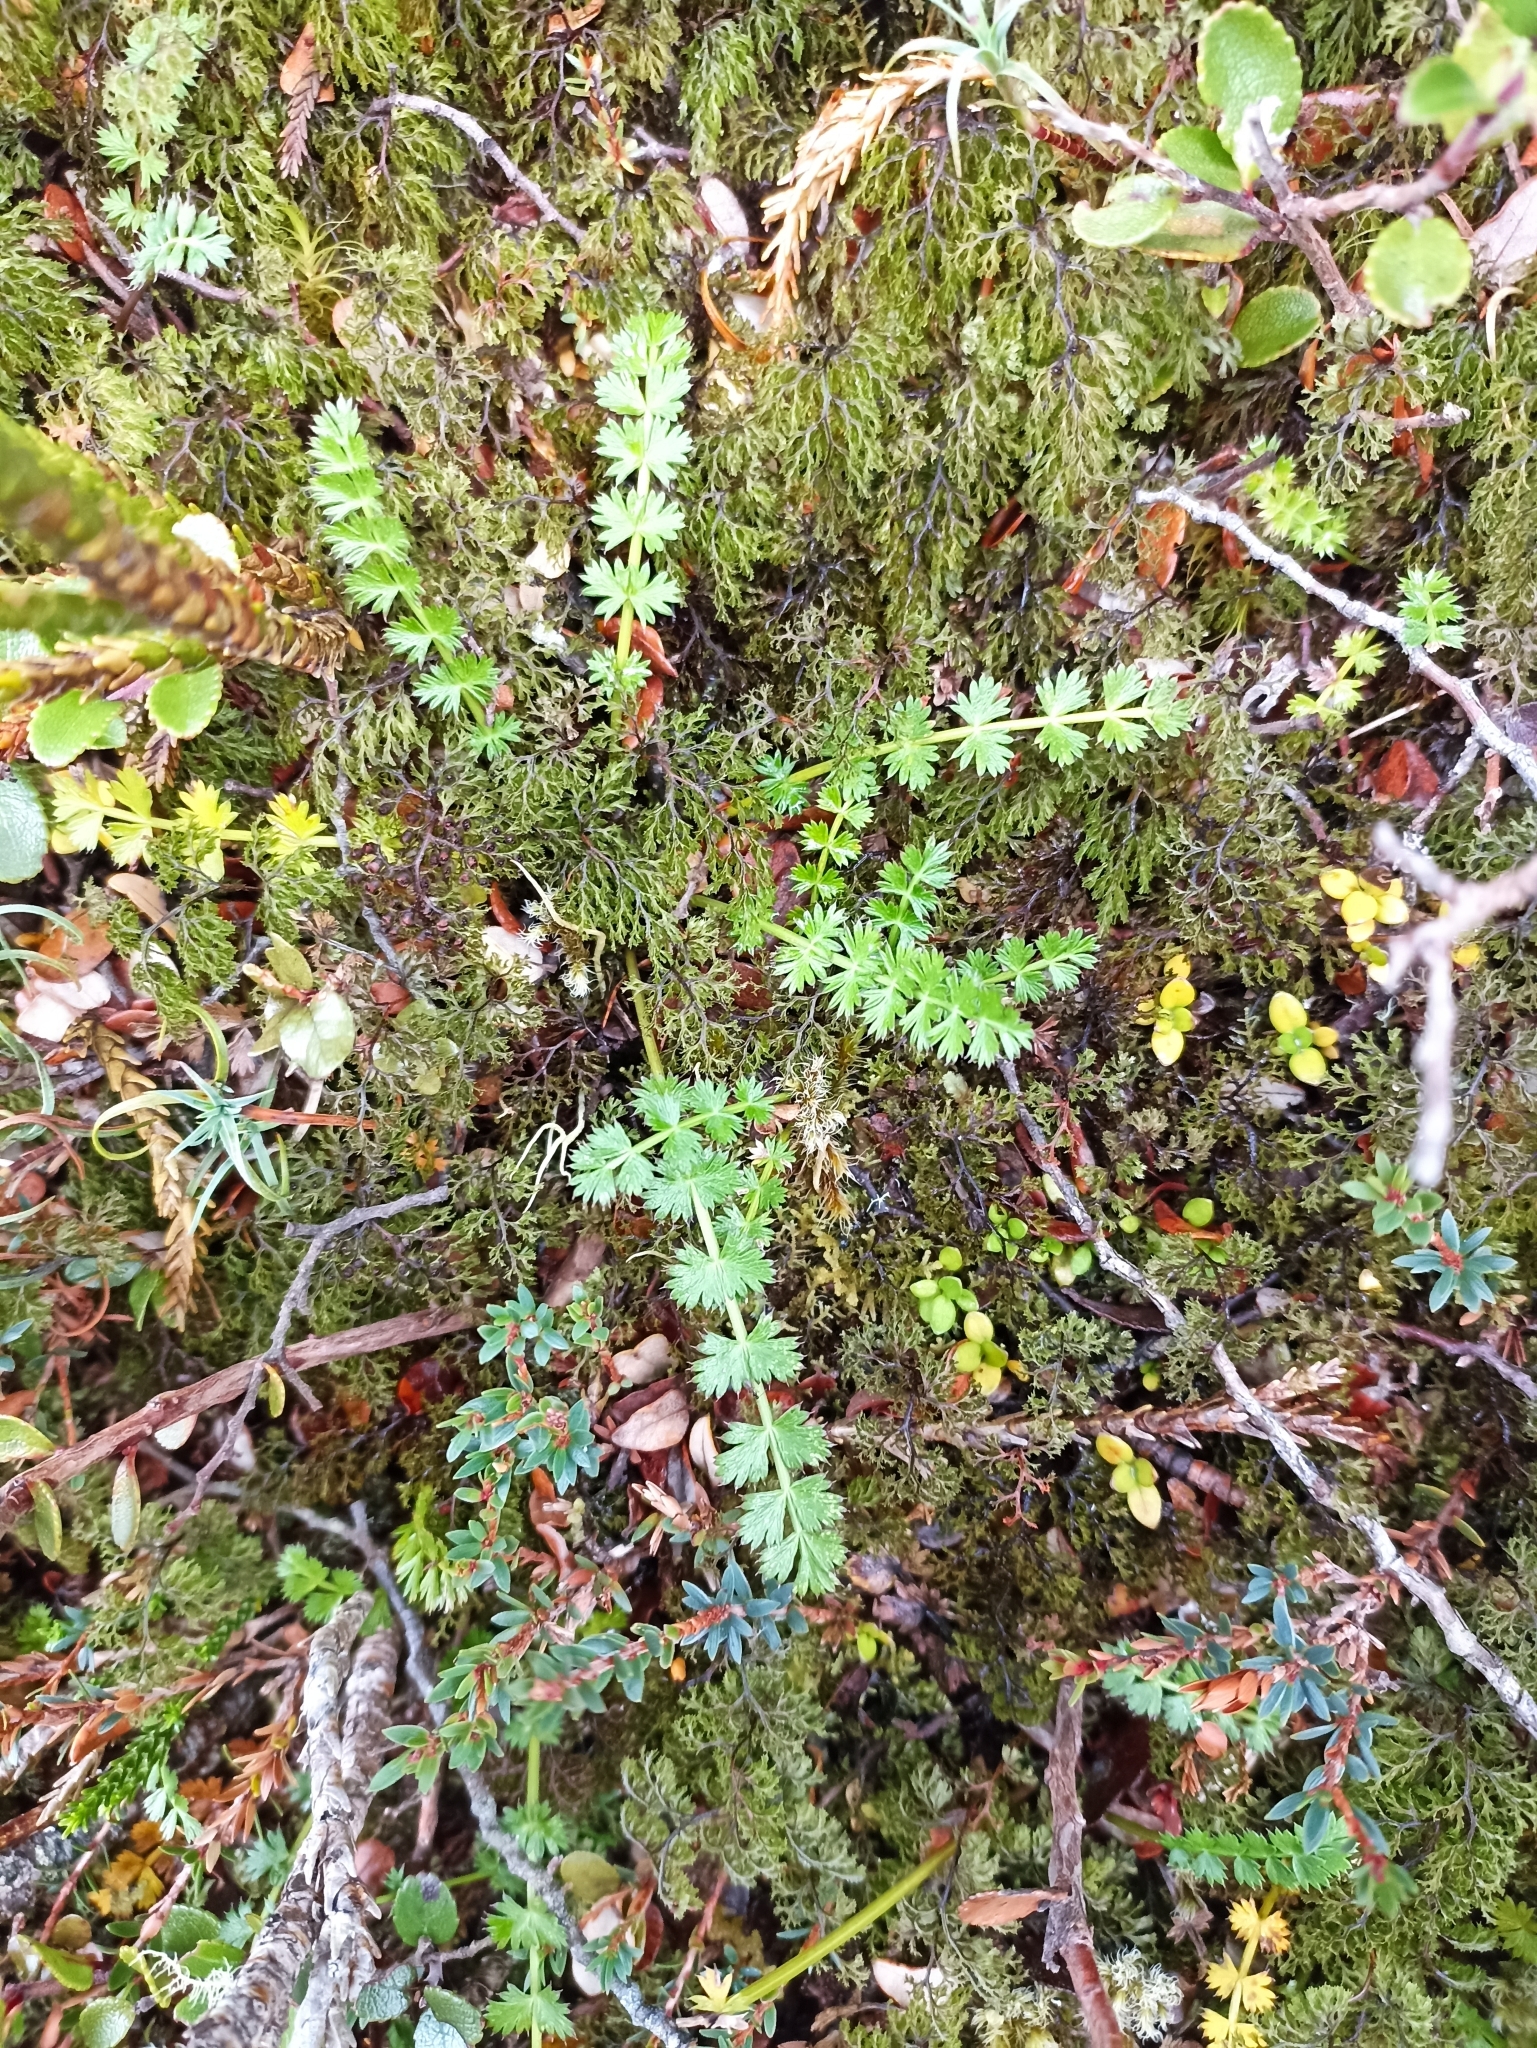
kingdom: Plantae
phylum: Tracheophyta
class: Magnoliopsida
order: Apiales
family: Apiaceae
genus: Anisotome
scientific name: Anisotome aromatica
